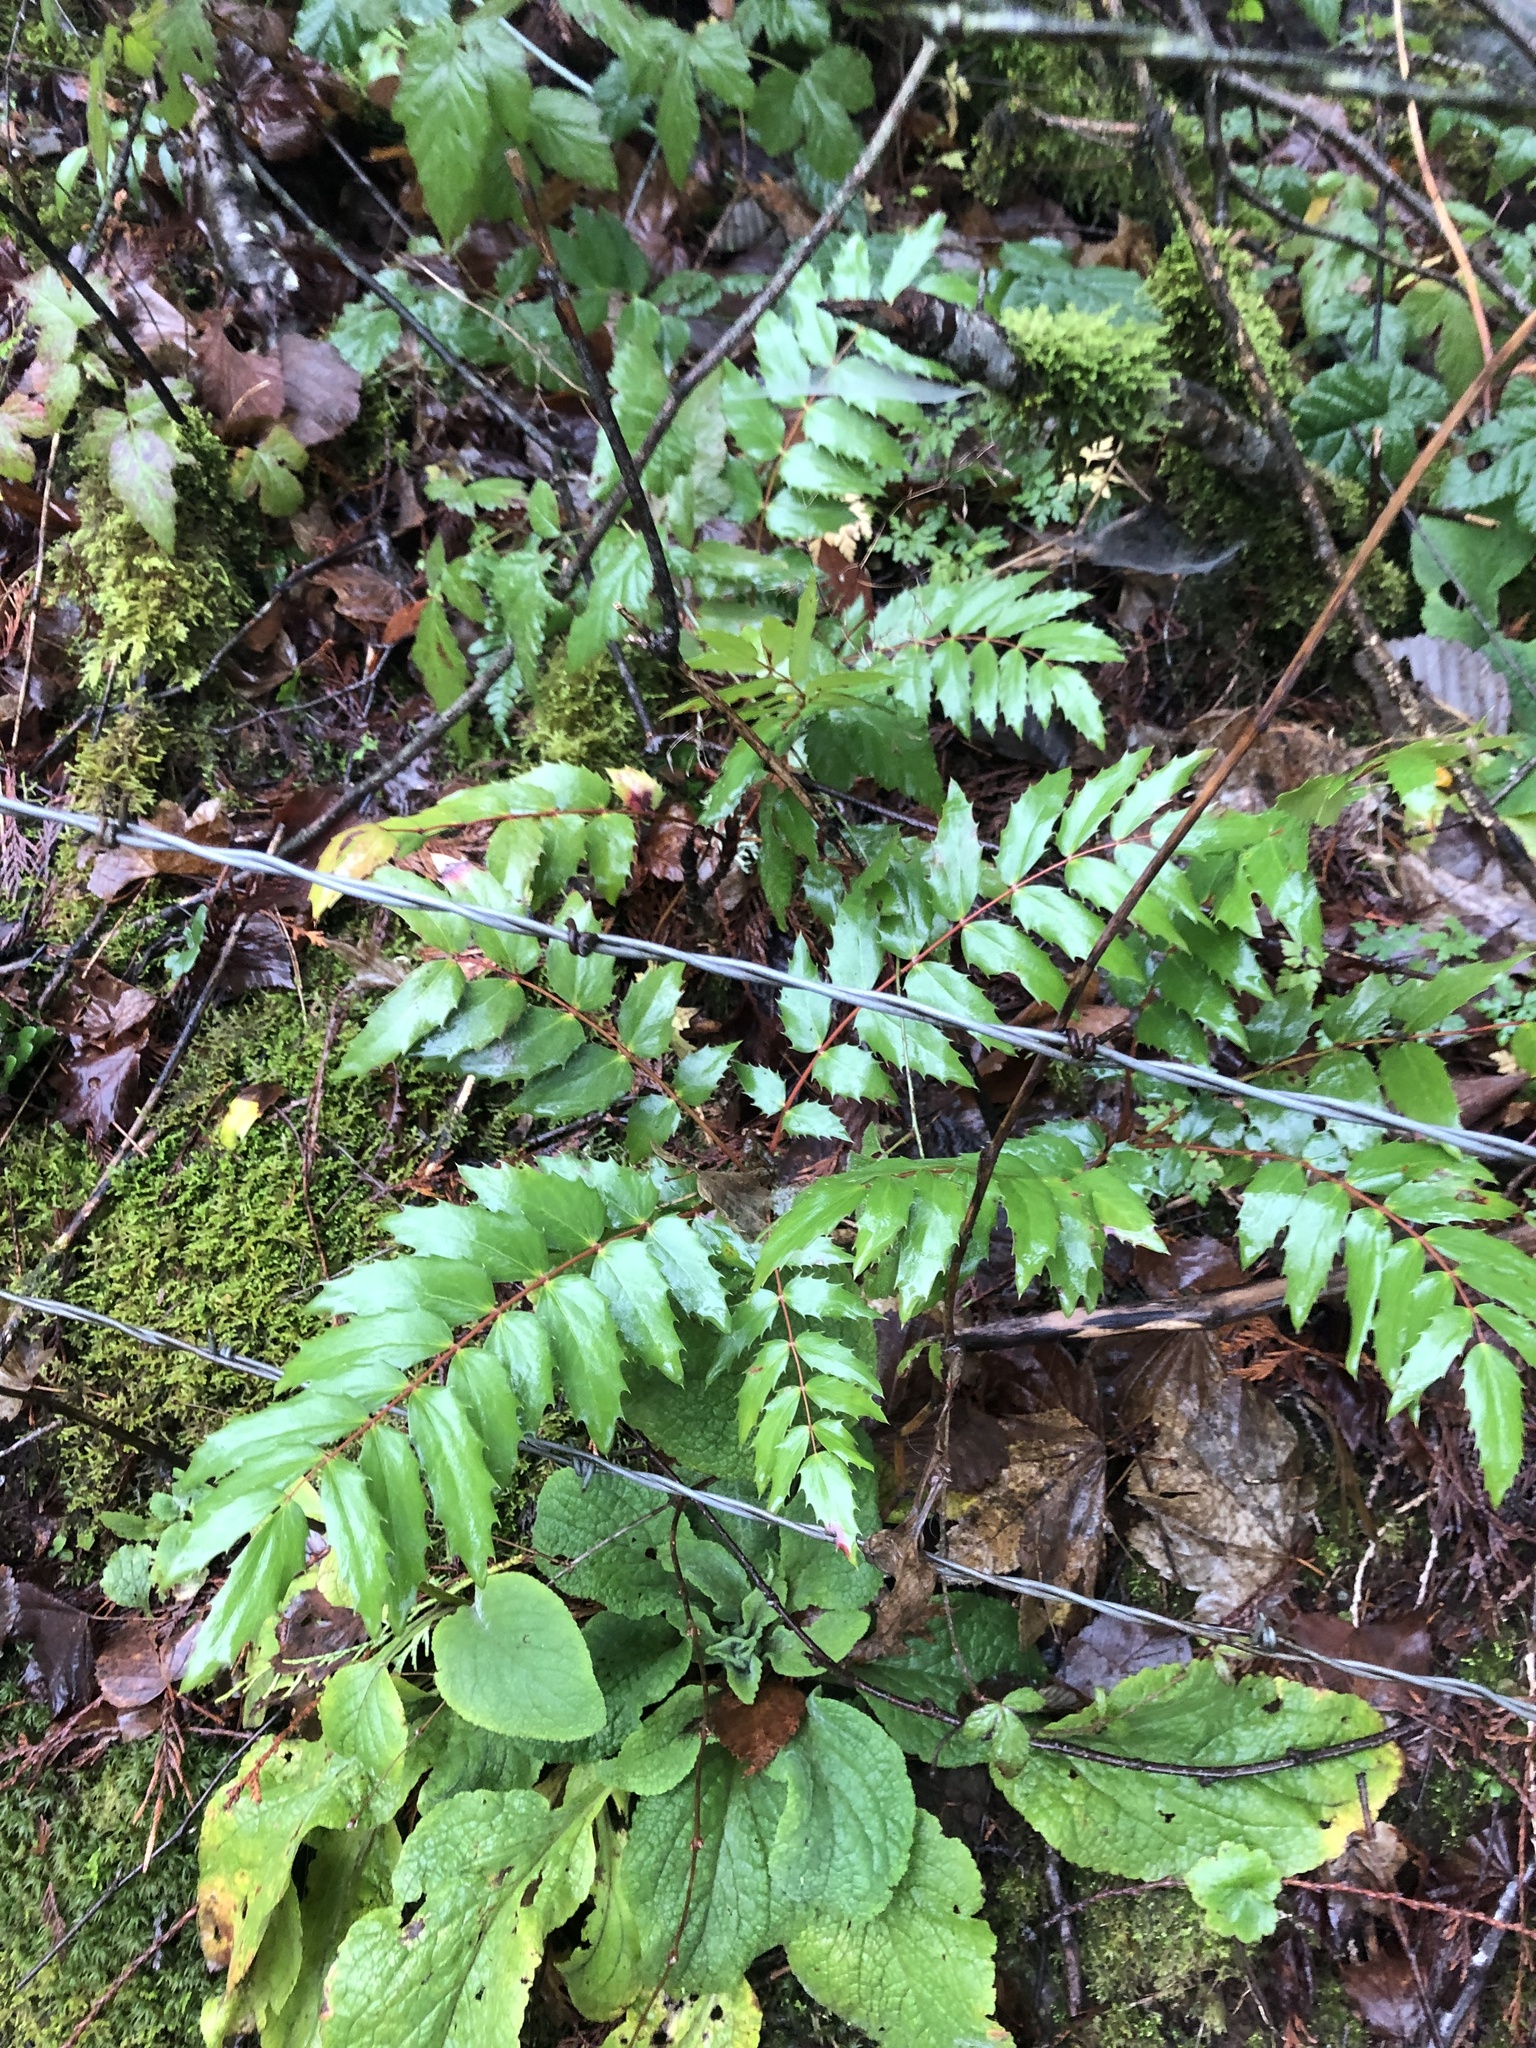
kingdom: Plantae
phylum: Tracheophyta
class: Magnoliopsida
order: Ranunculales
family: Berberidaceae
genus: Mahonia
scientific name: Mahonia nervosa
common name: Cascade oregon-grape
